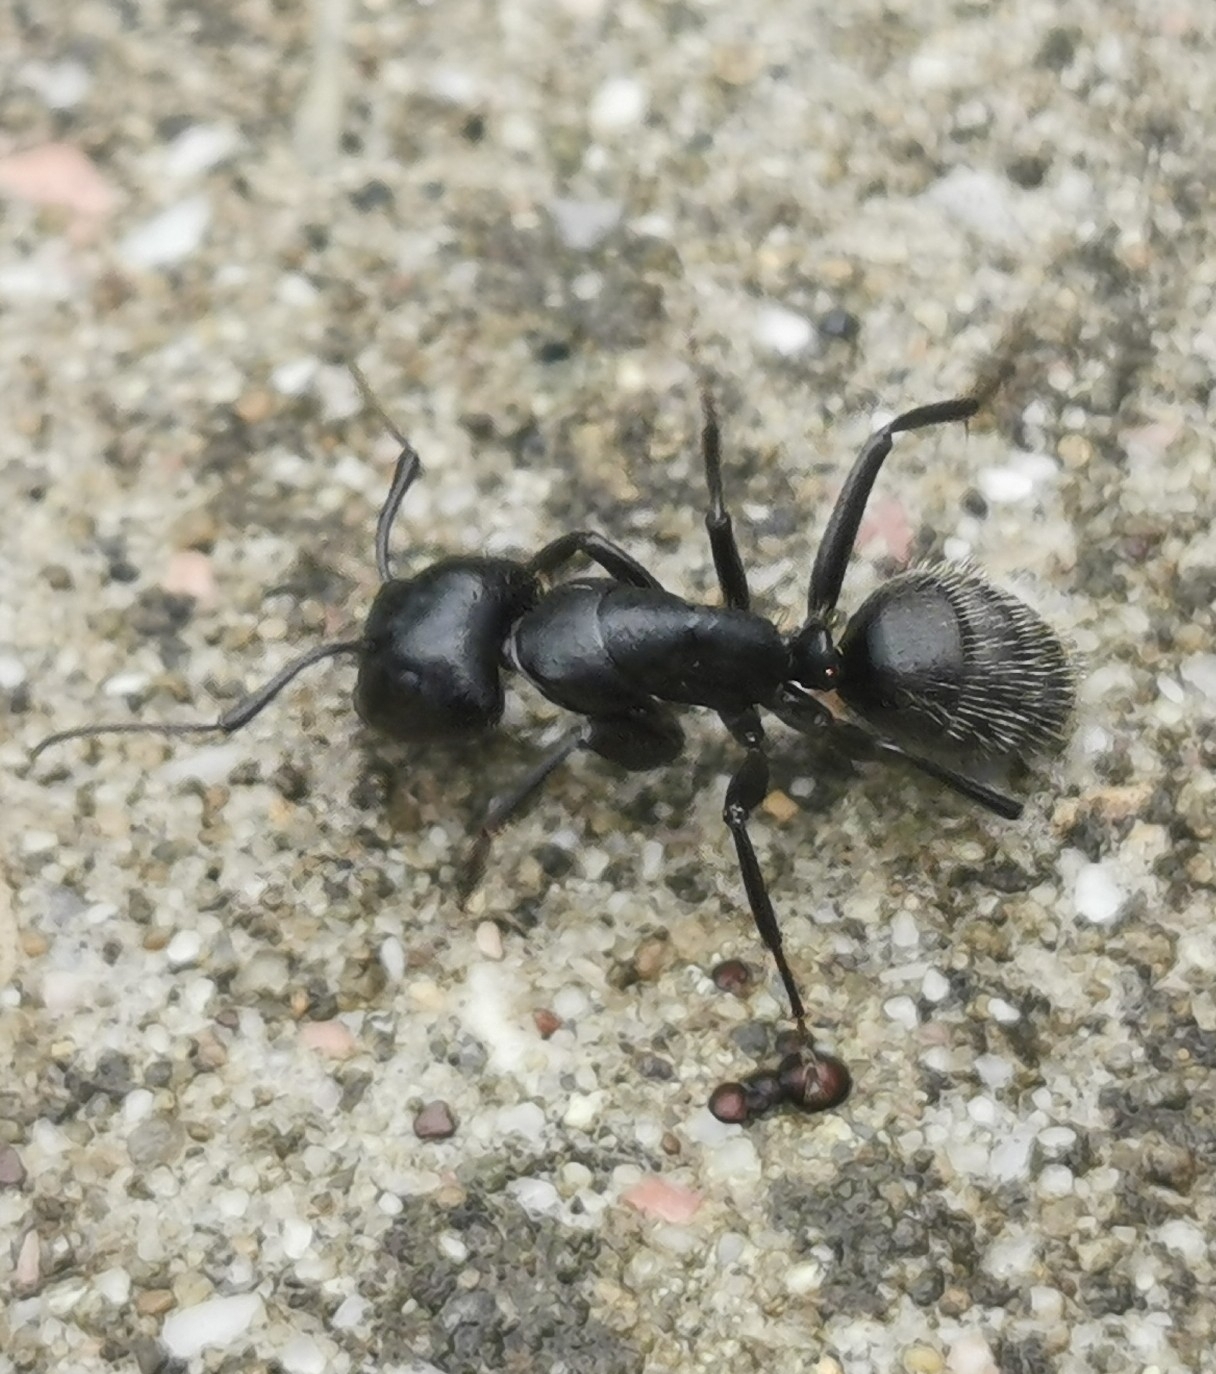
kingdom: Animalia
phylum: Arthropoda
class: Insecta
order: Hymenoptera
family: Formicidae
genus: Camponotus
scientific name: Camponotus vagus
